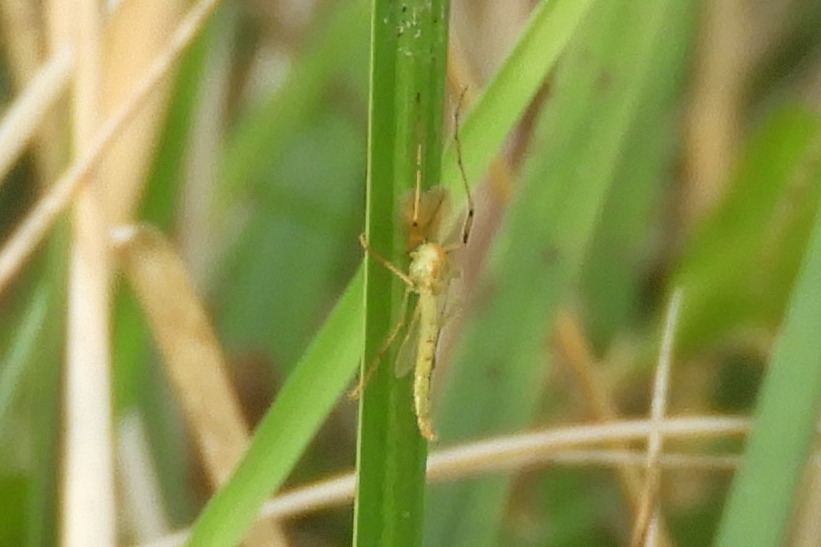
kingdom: Animalia
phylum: Arthropoda
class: Insecta
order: Diptera
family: Chironomidae
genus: Axarus
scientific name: Axarus
